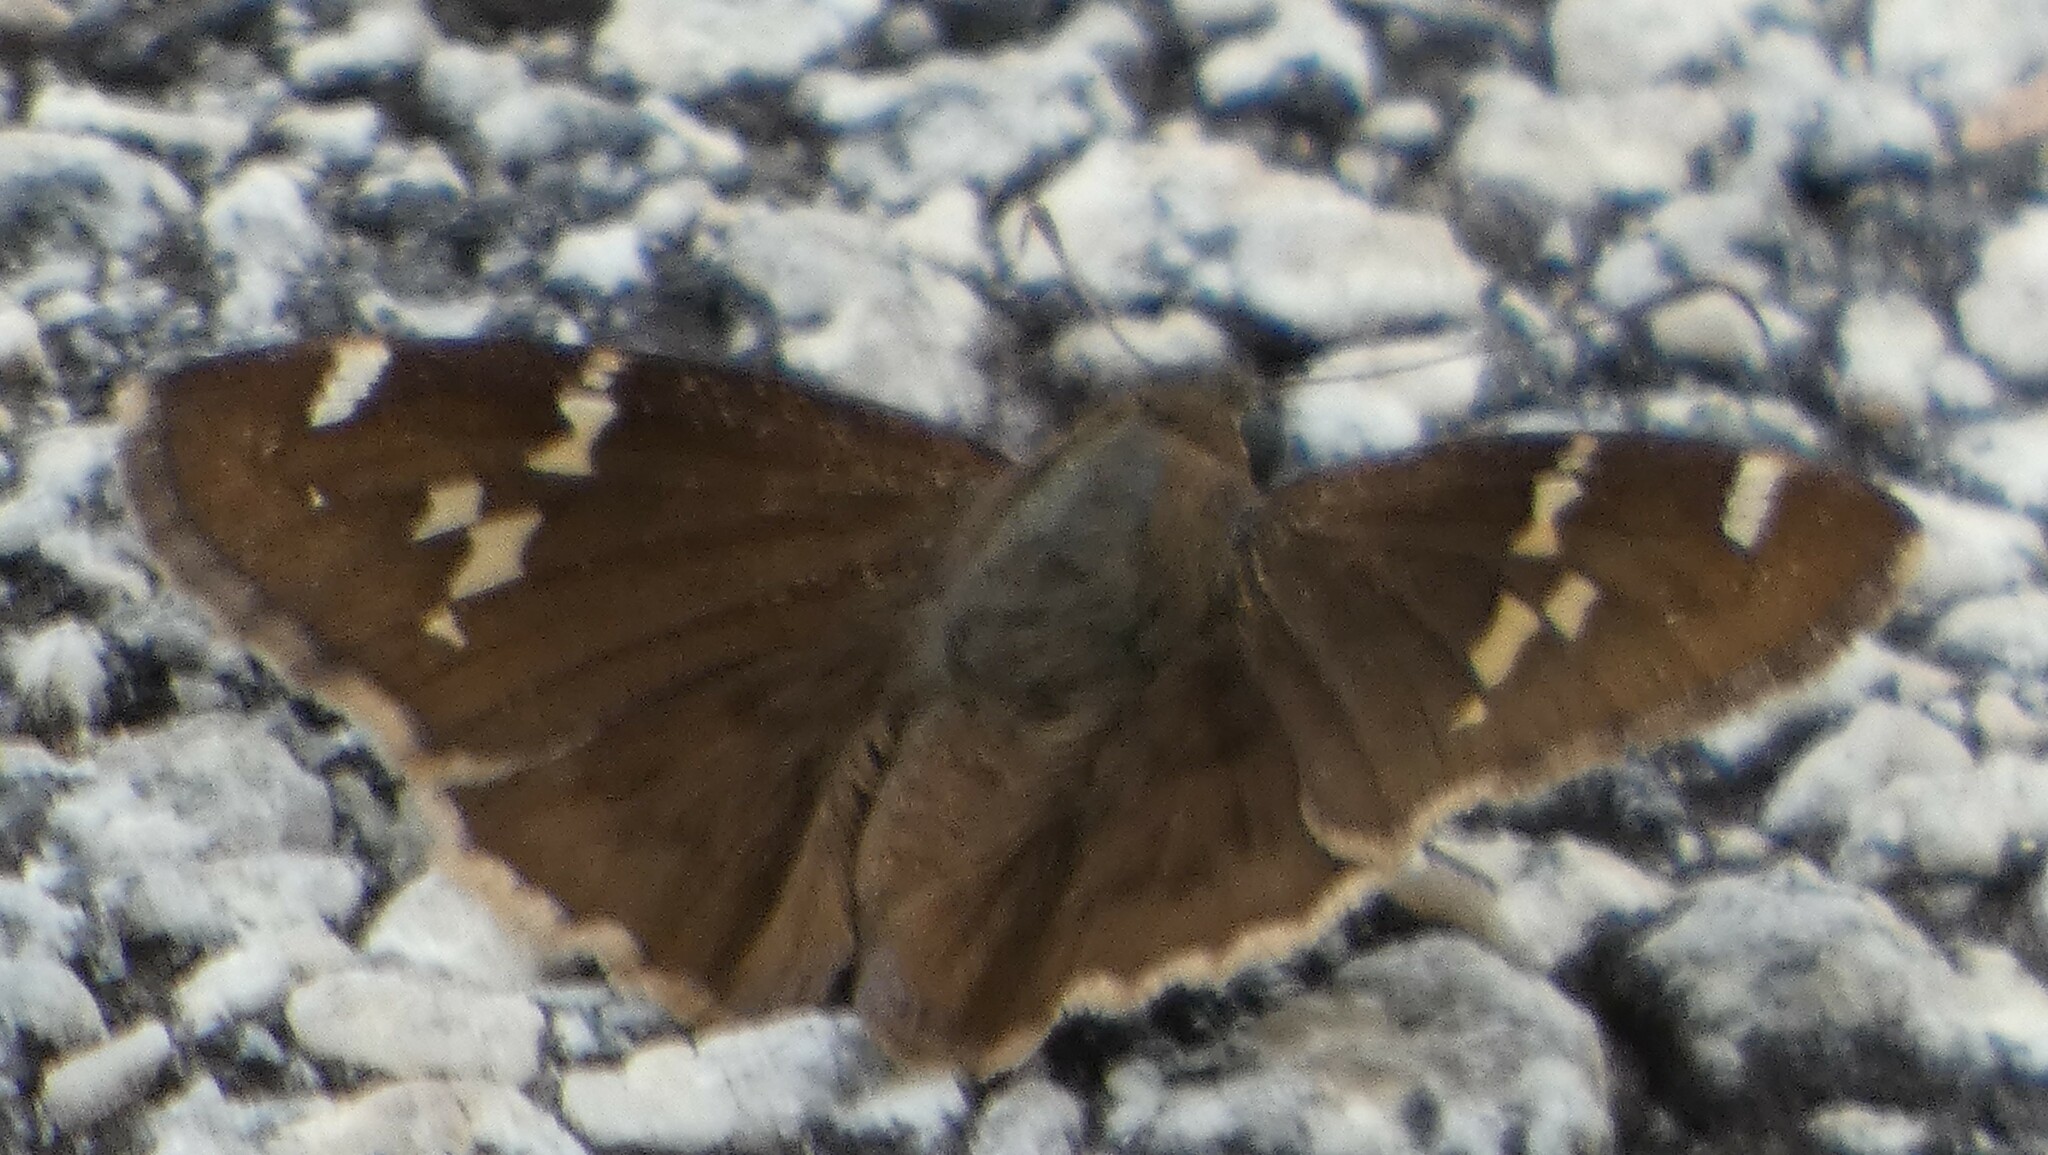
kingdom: Animalia
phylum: Arthropoda
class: Insecta
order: Lepidoptera
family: Hesperiidae
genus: Thorybes
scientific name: Thorybes daunus
